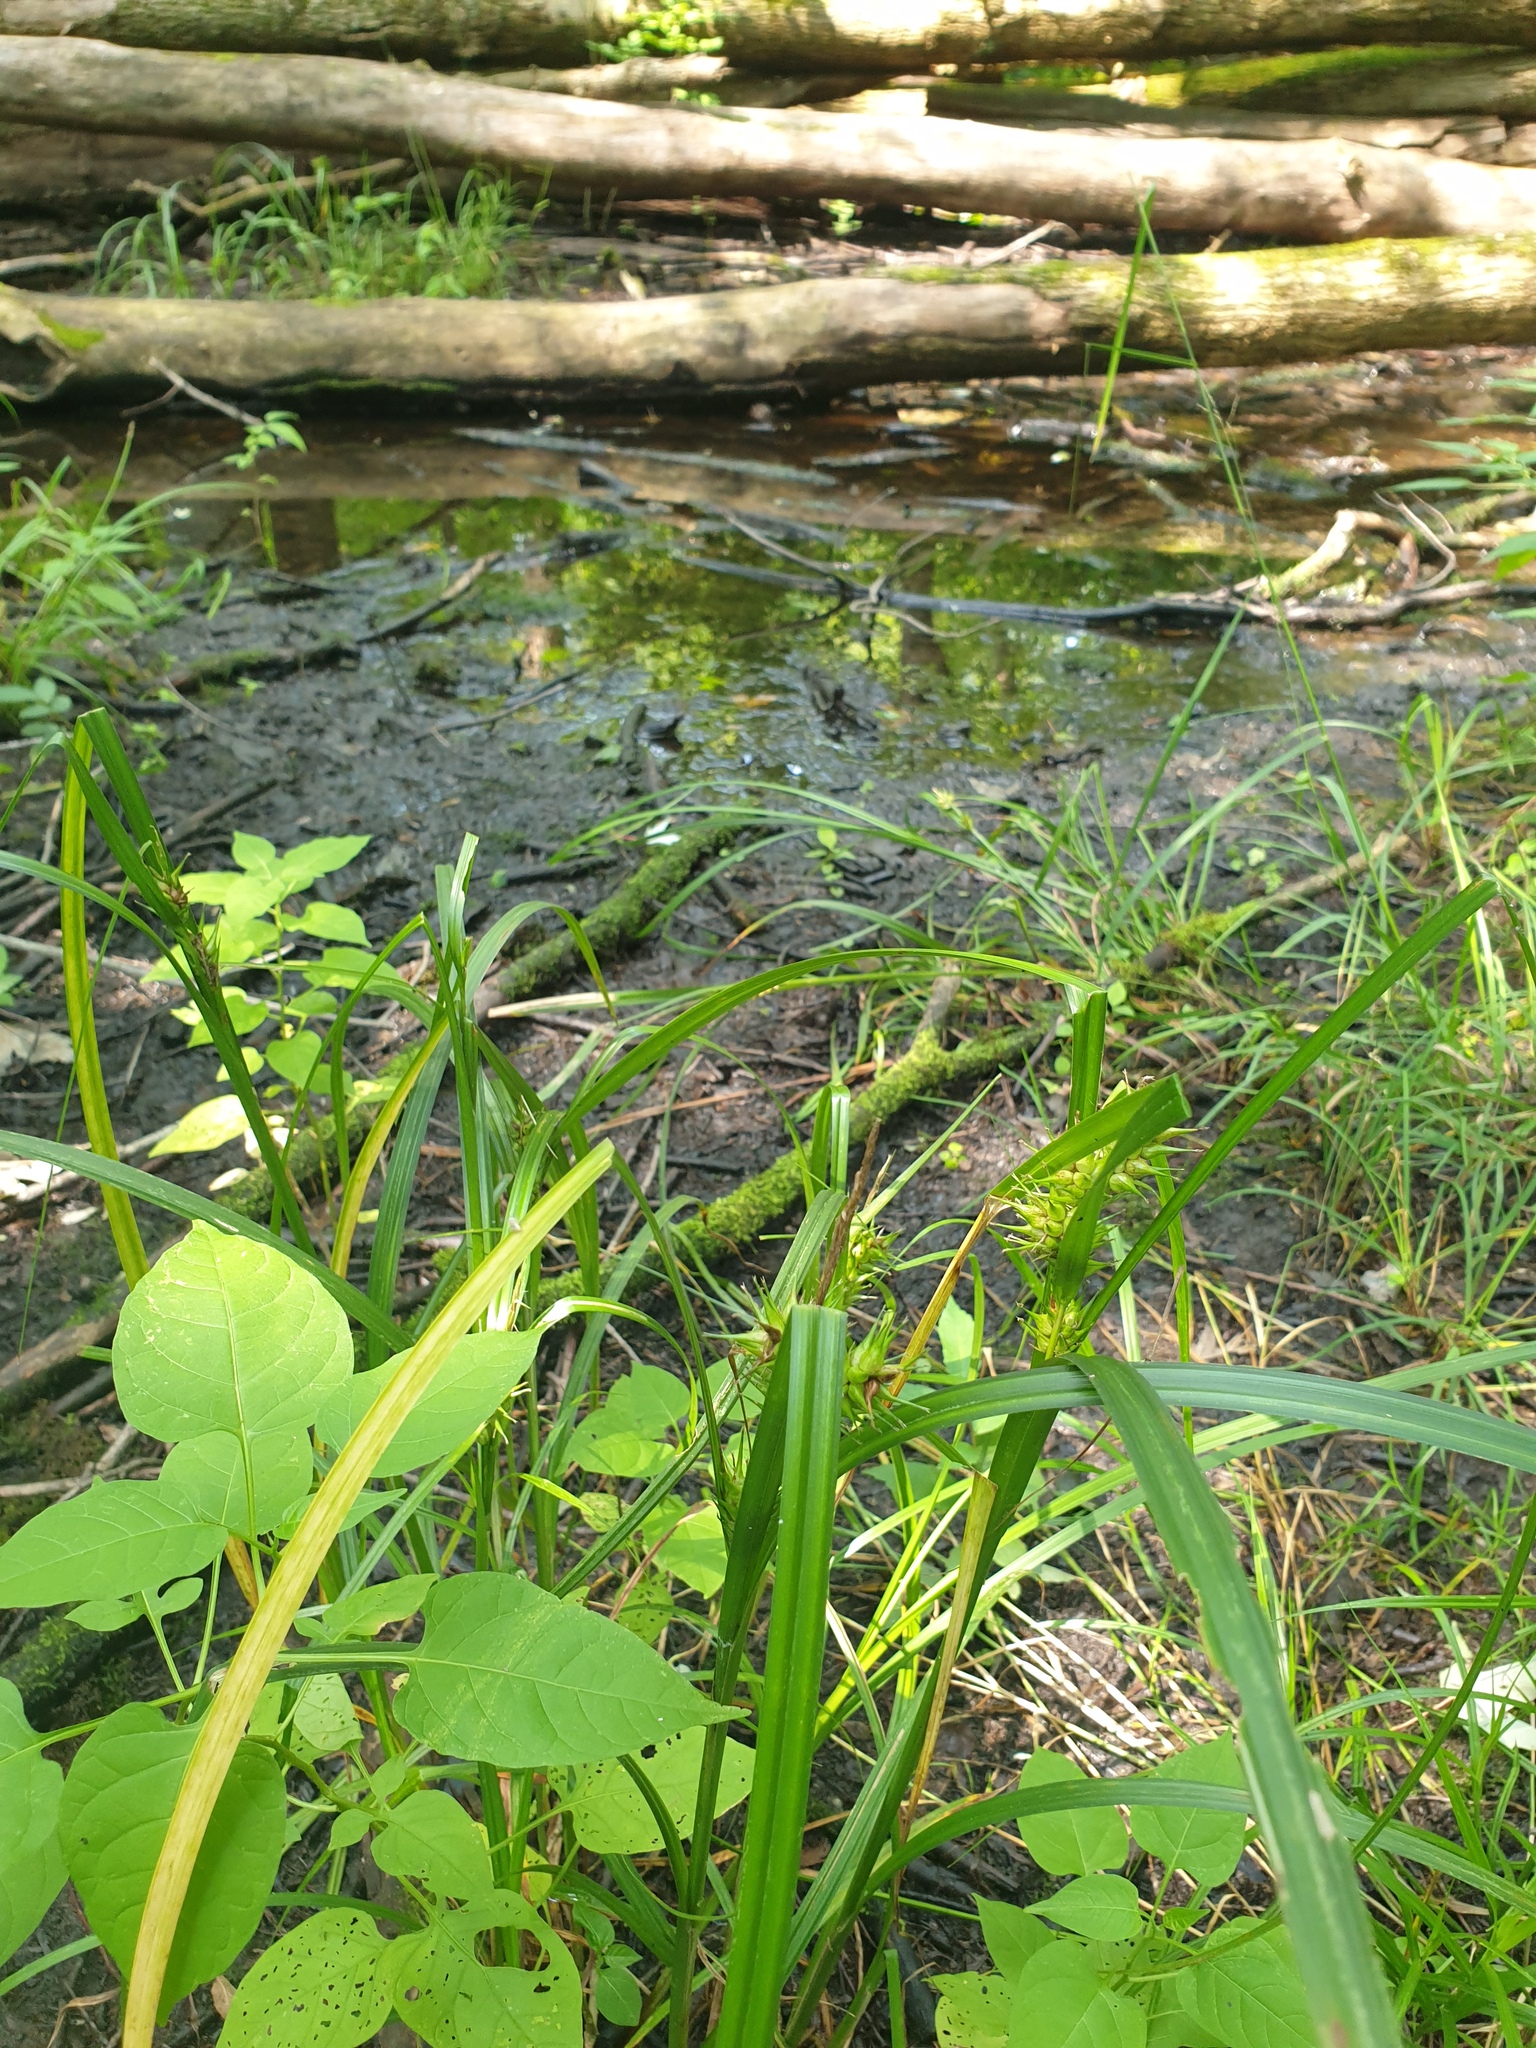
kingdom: Plantae
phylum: Tracheophyta
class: Liliopsida
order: Poales
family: Cyperaceae
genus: Carex
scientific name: Carex lupulina
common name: Hop sedge
